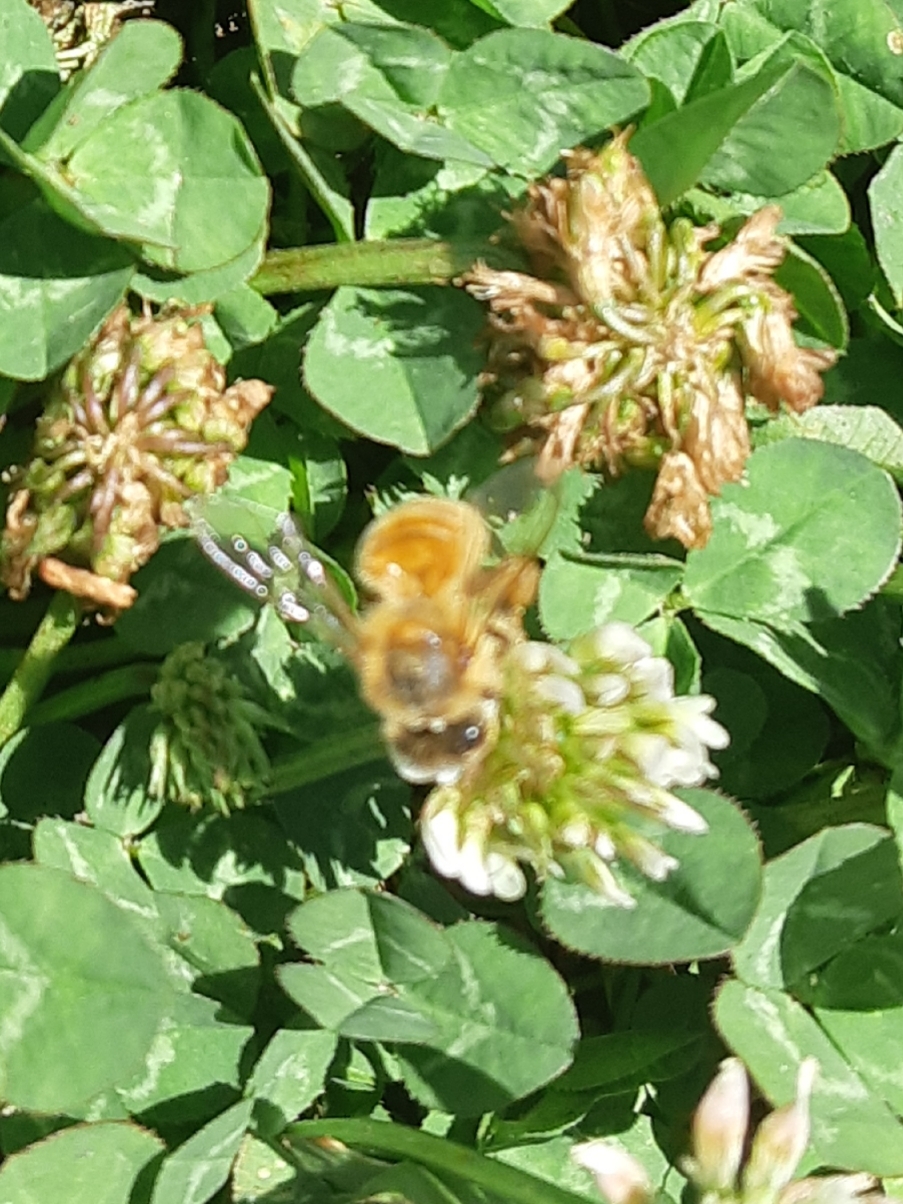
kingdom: Animalia
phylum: Arthropoda
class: Insecta
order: Hymenoptera
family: Apidae
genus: Apis
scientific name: Apis mellifera
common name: Honey bee
